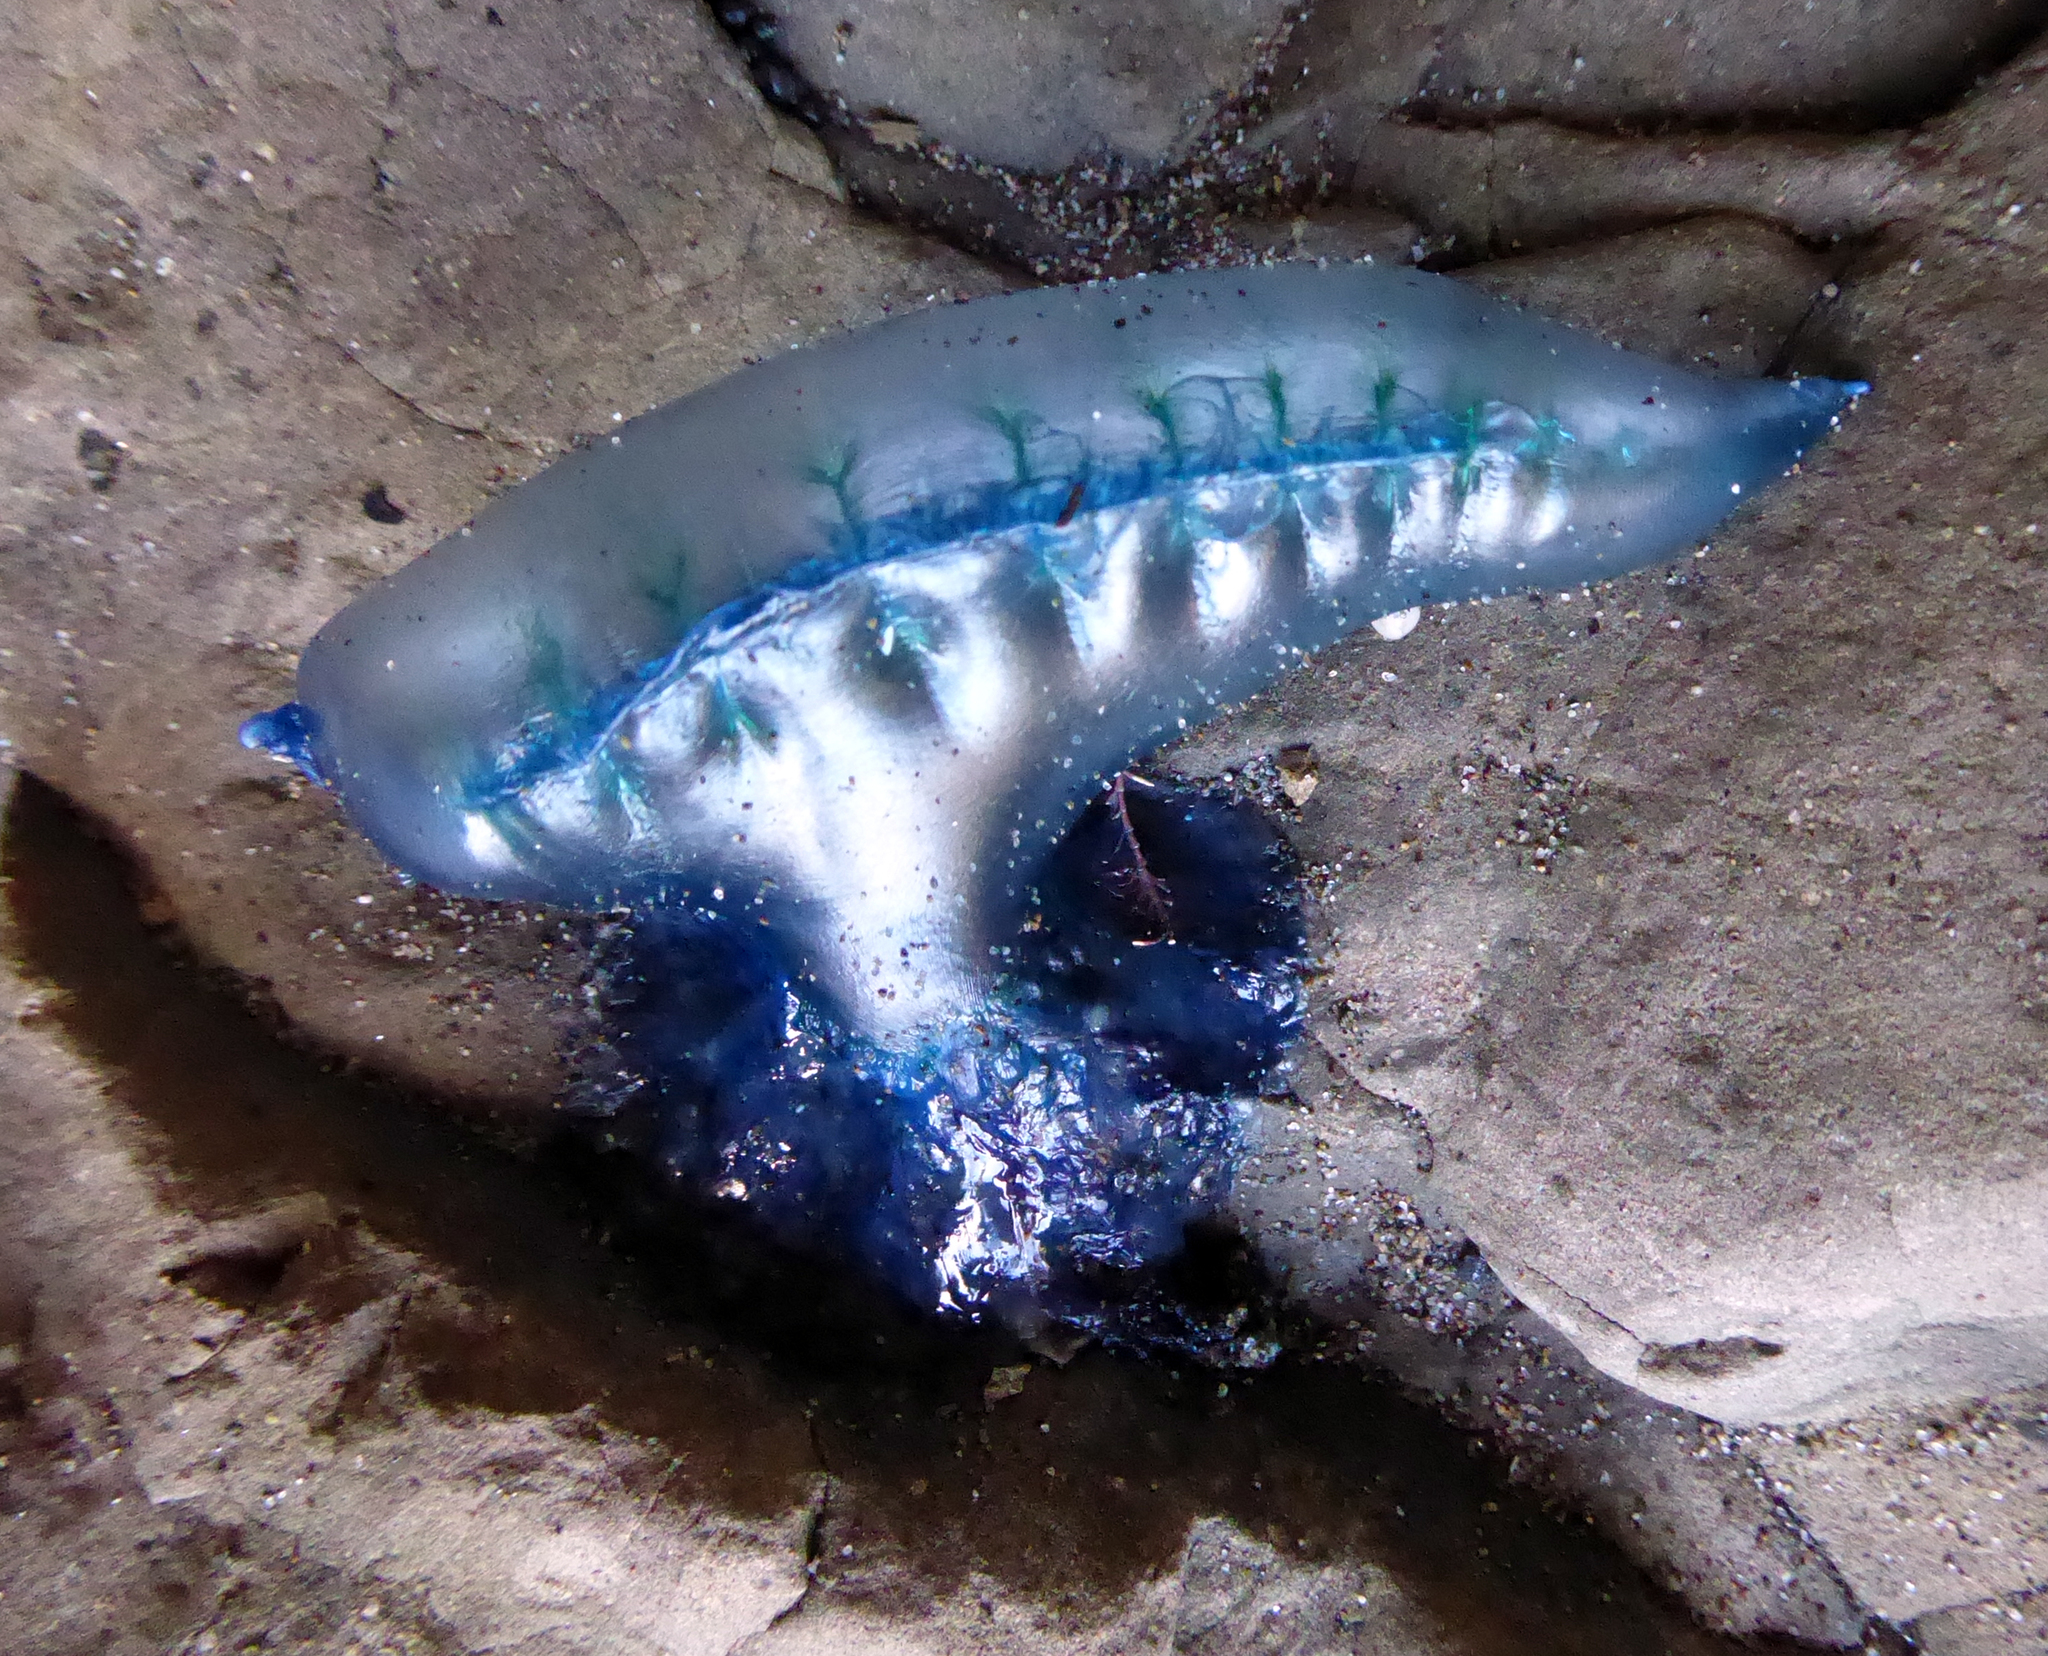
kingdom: Animalia
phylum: Cnidaria
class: Hydrozoa
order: Siphonophorae
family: Physaliidae
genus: Physalia
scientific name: Physalia physalis
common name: Portuguese man-of-war
